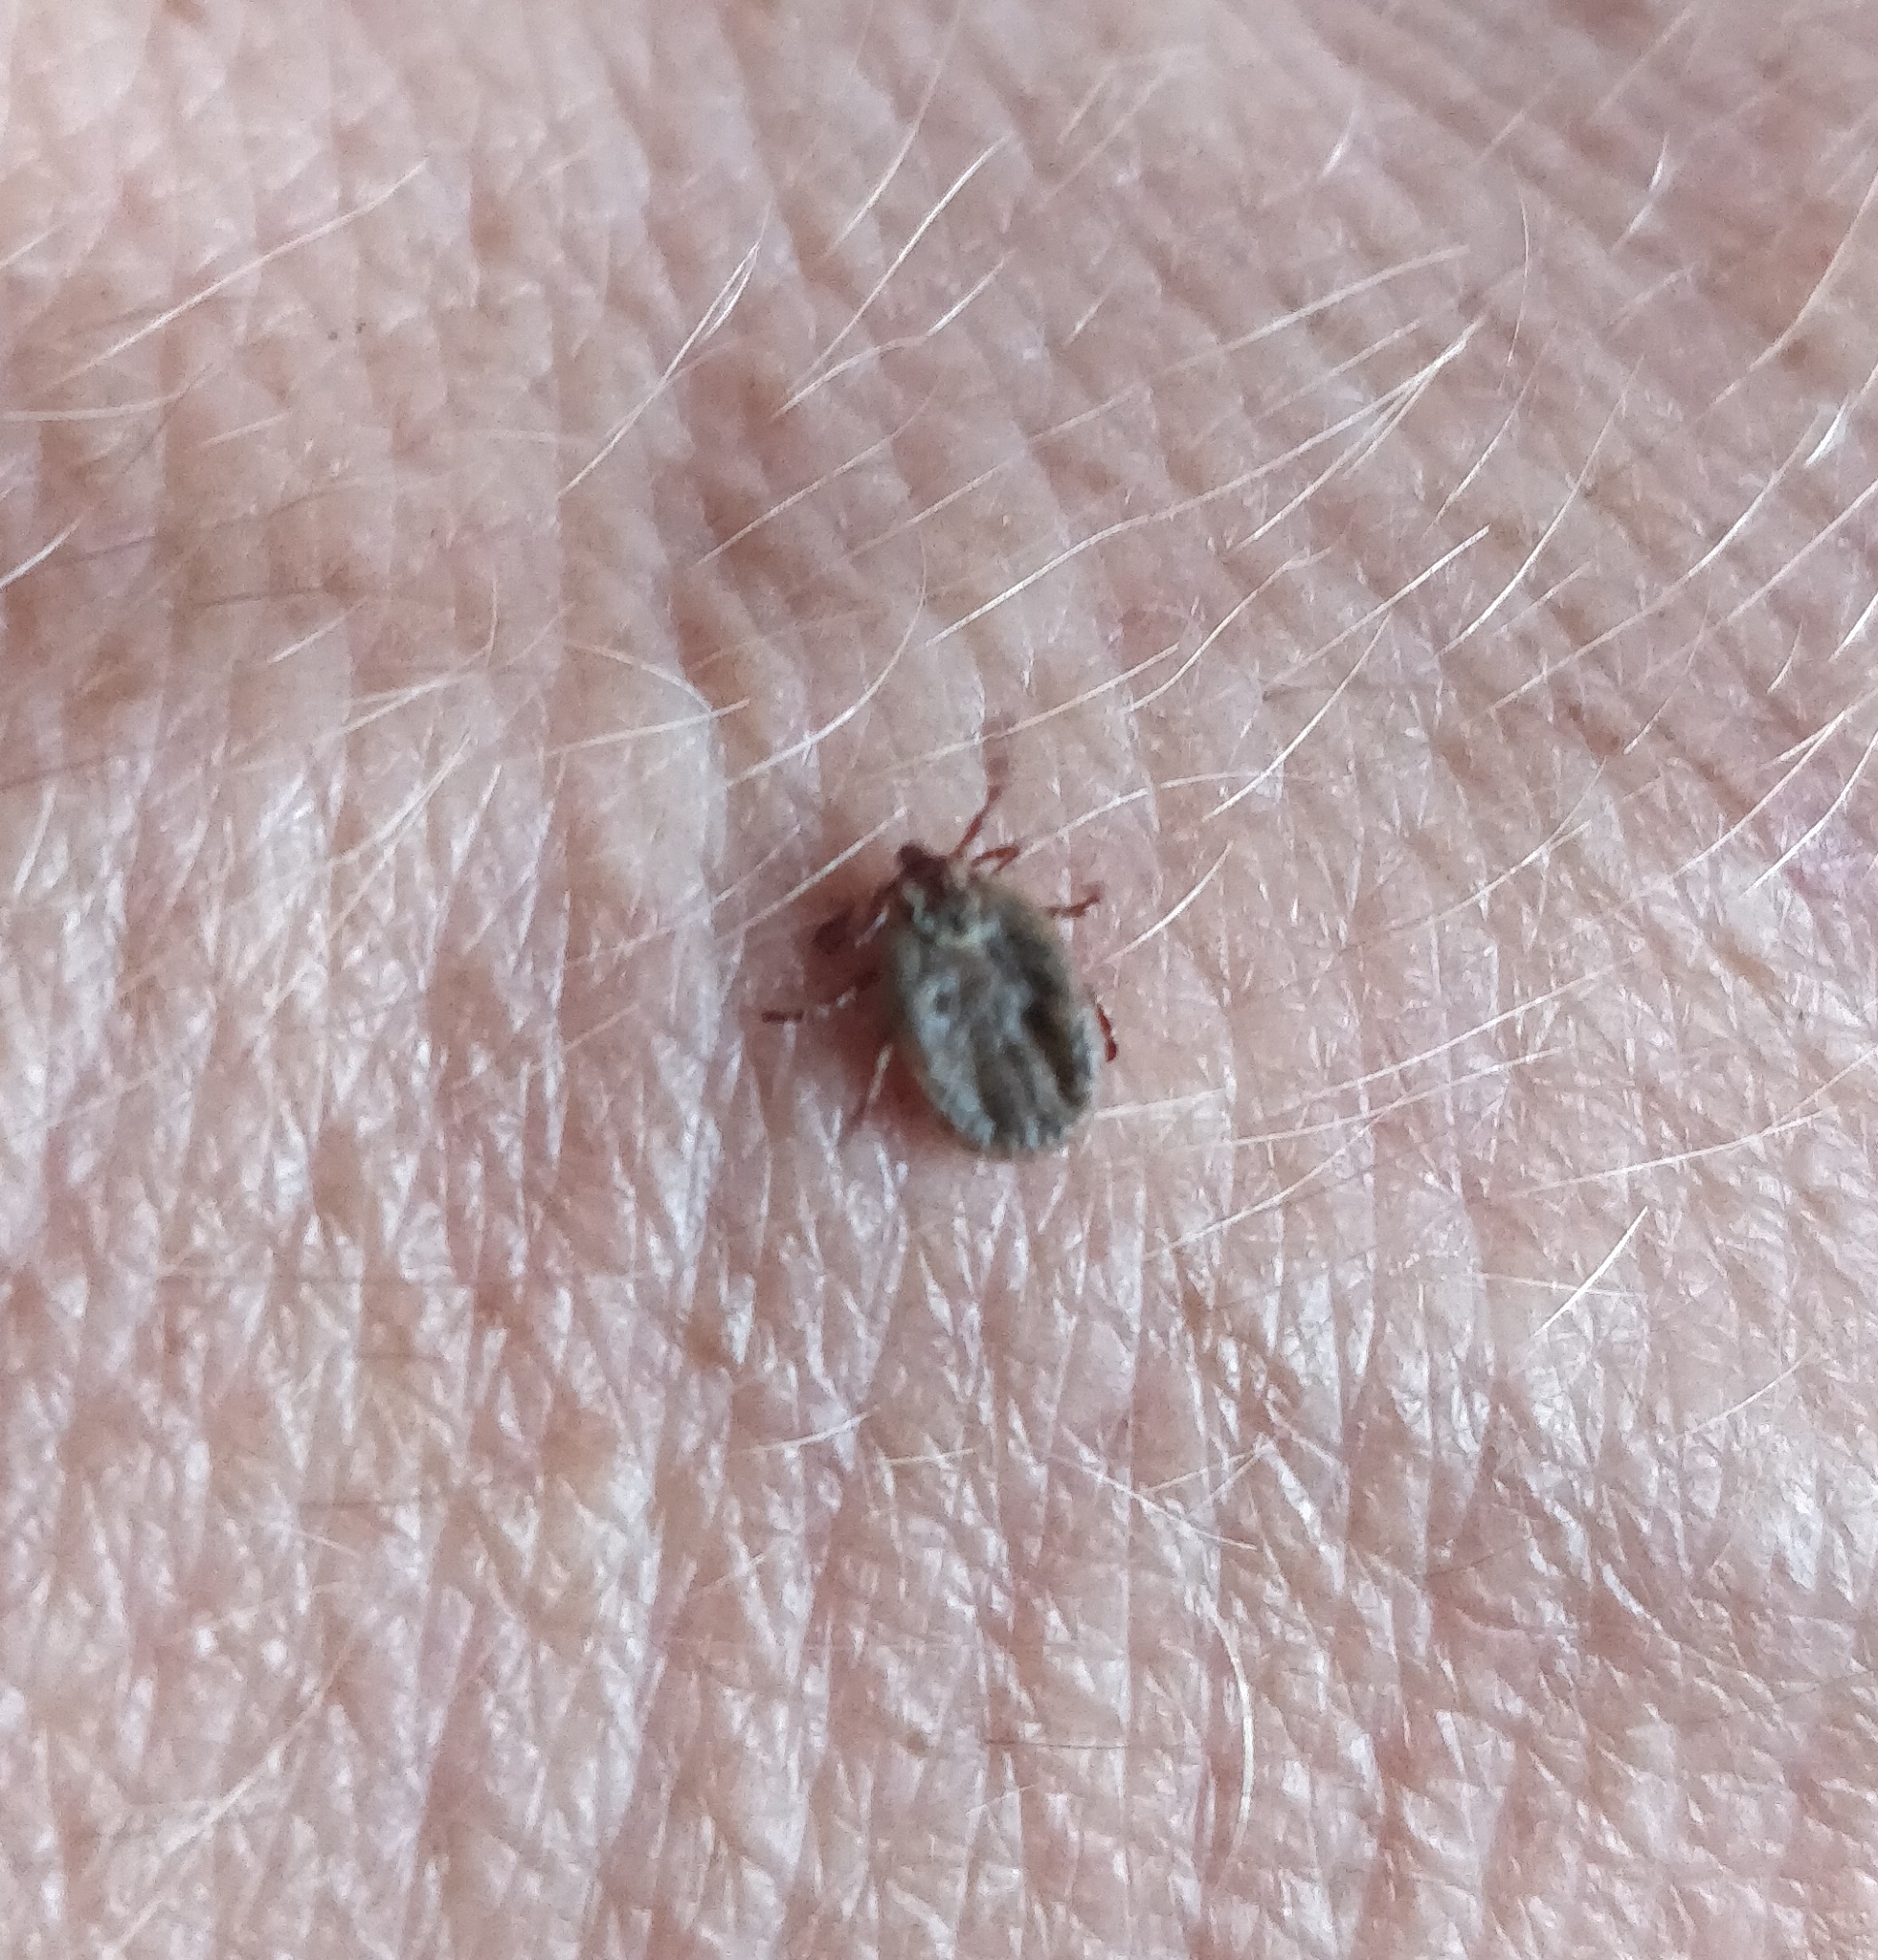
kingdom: Animalia
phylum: Arthropoda
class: Arachnida
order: Ixodida
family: Ixodidae
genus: Dermacentor
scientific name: Dermacentor variabilis
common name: American dog tick
